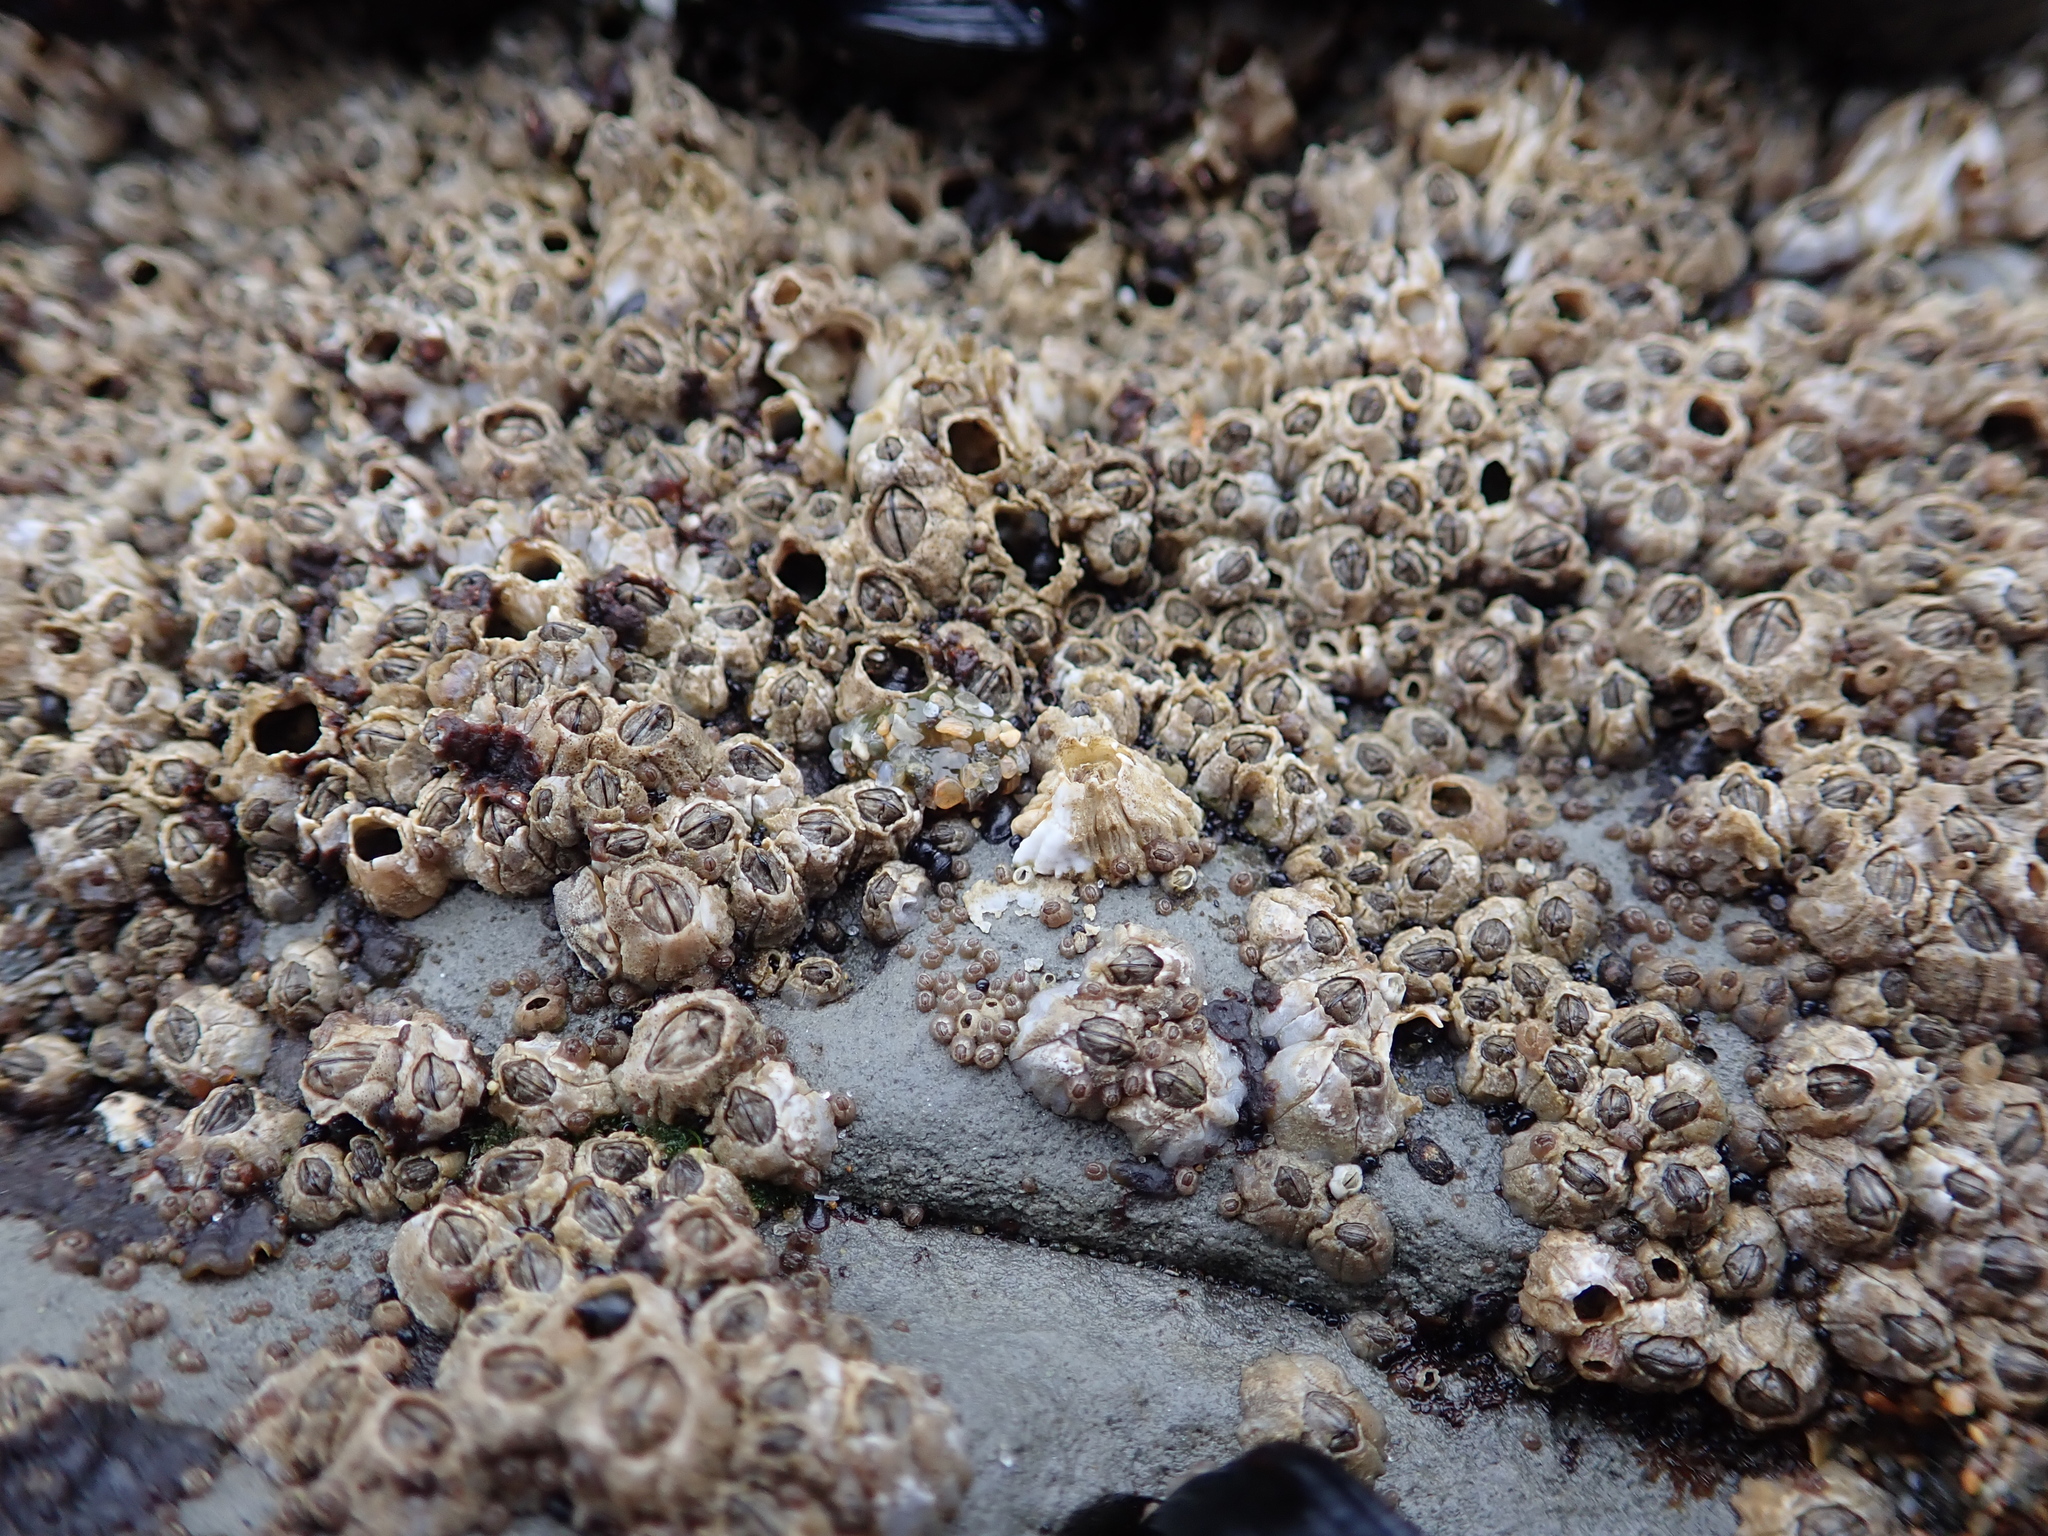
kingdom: Animalia
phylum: Arthropoda
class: Maxillopoda
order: Sessilia
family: Balanidae
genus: Balanus
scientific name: Balanus glandula
